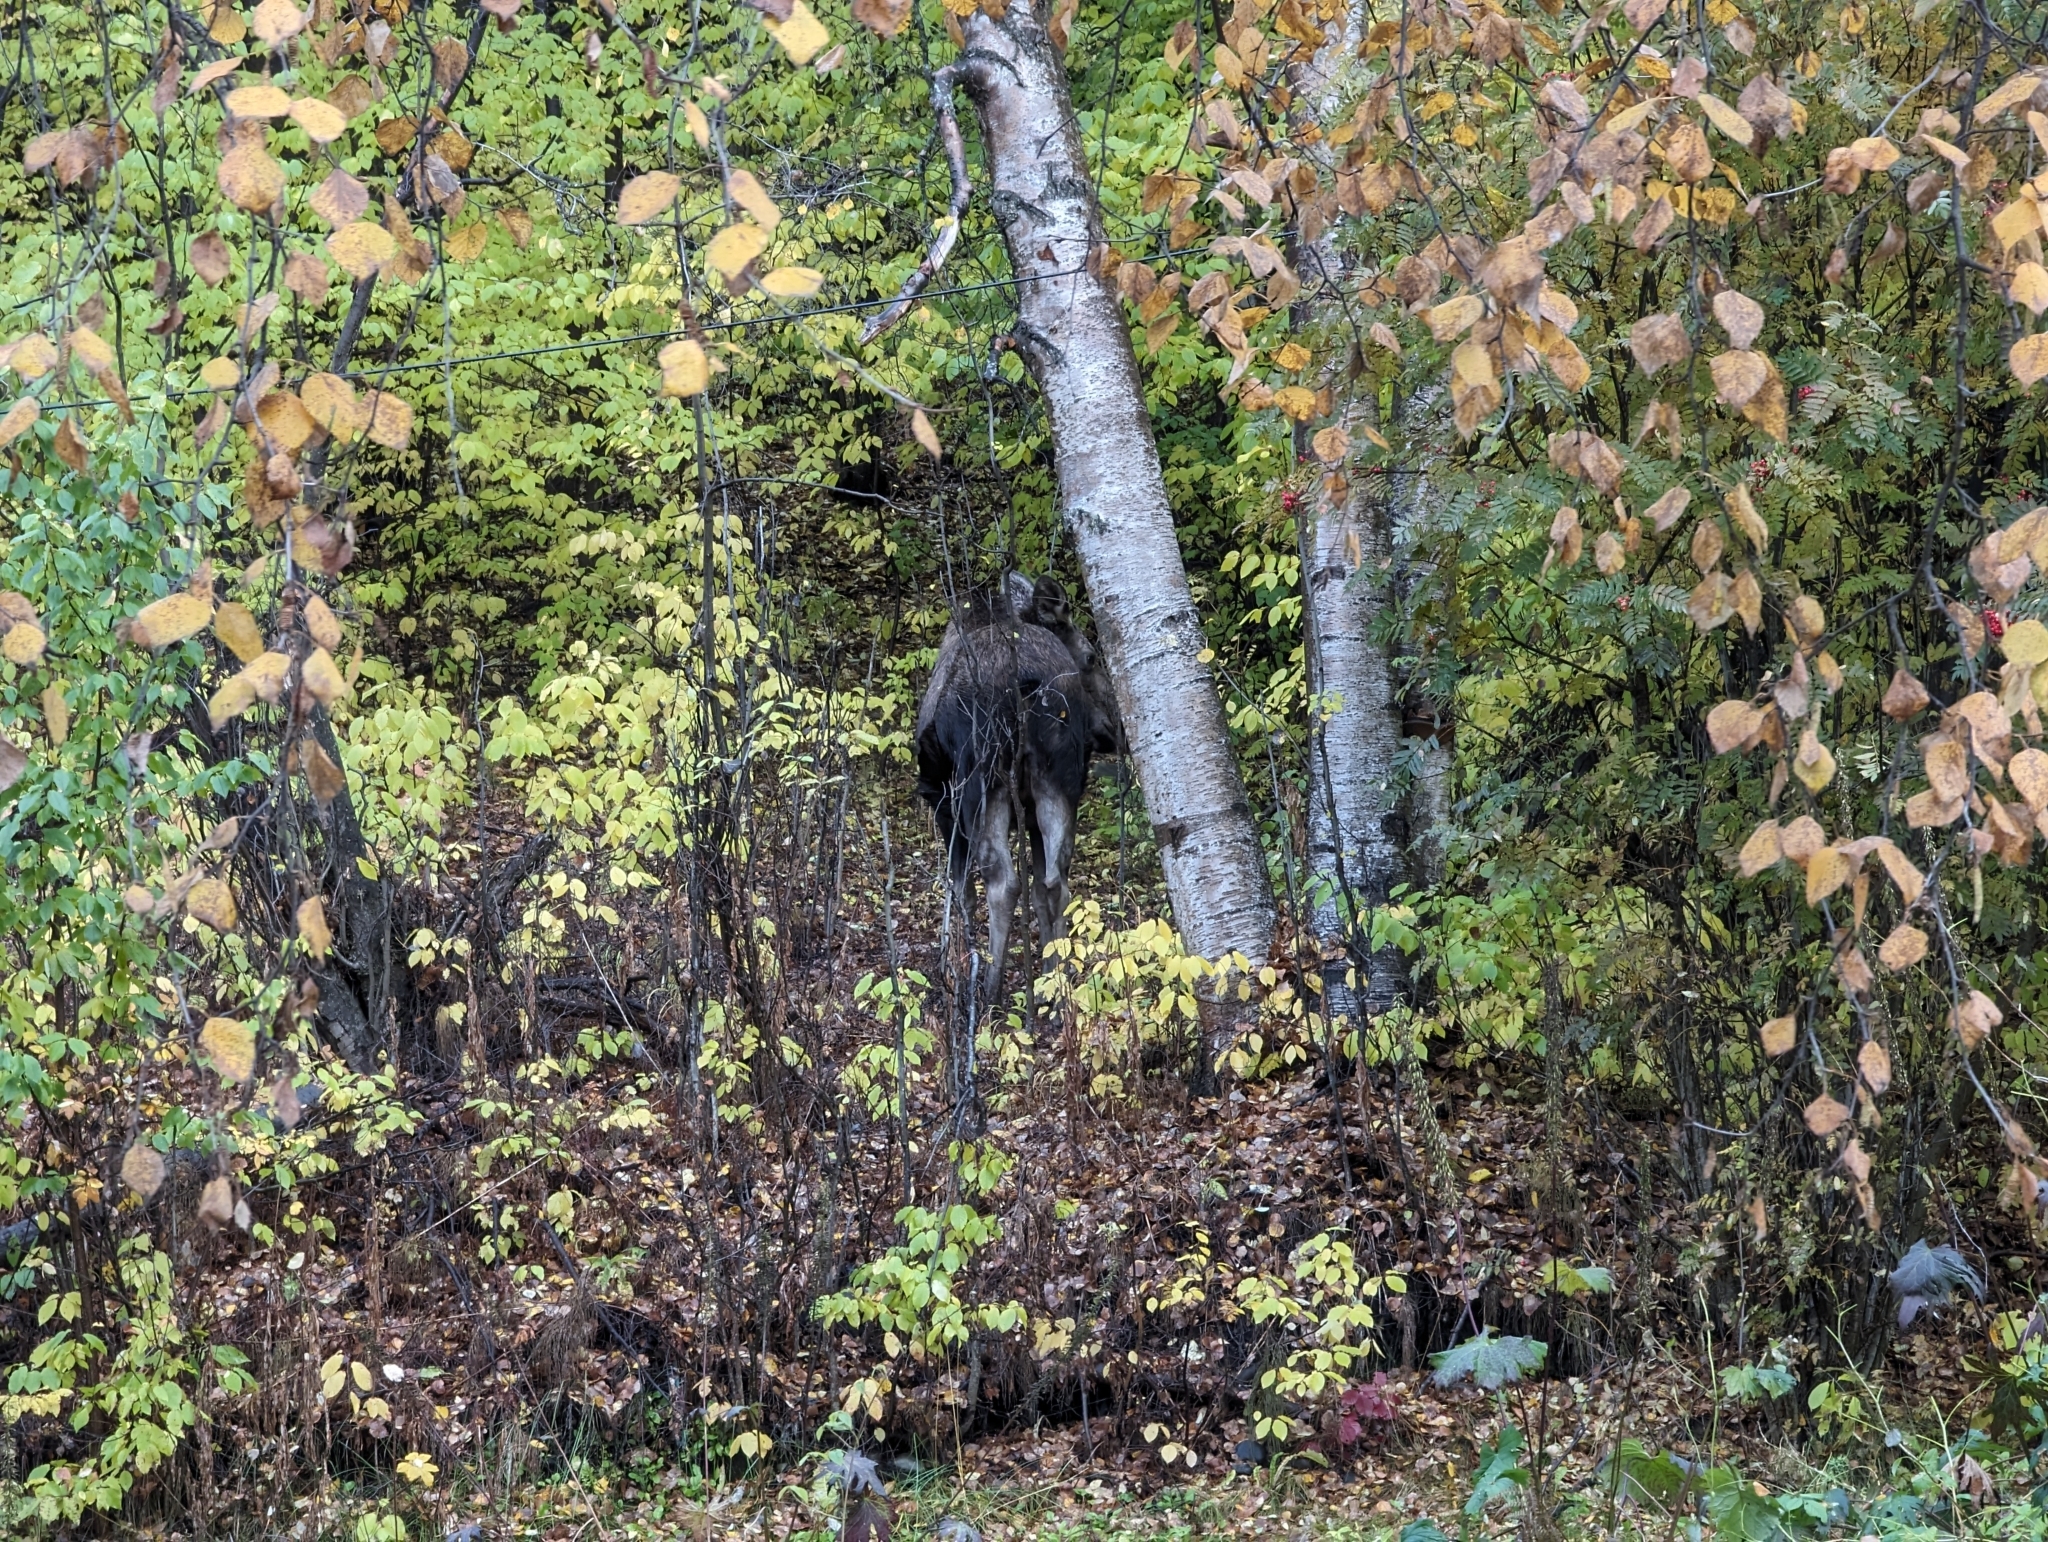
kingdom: Animalia
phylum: Chordata
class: Mammalia
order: Artiodactyla
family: Cervidae
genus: Alces
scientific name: Alces alces
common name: Moose
